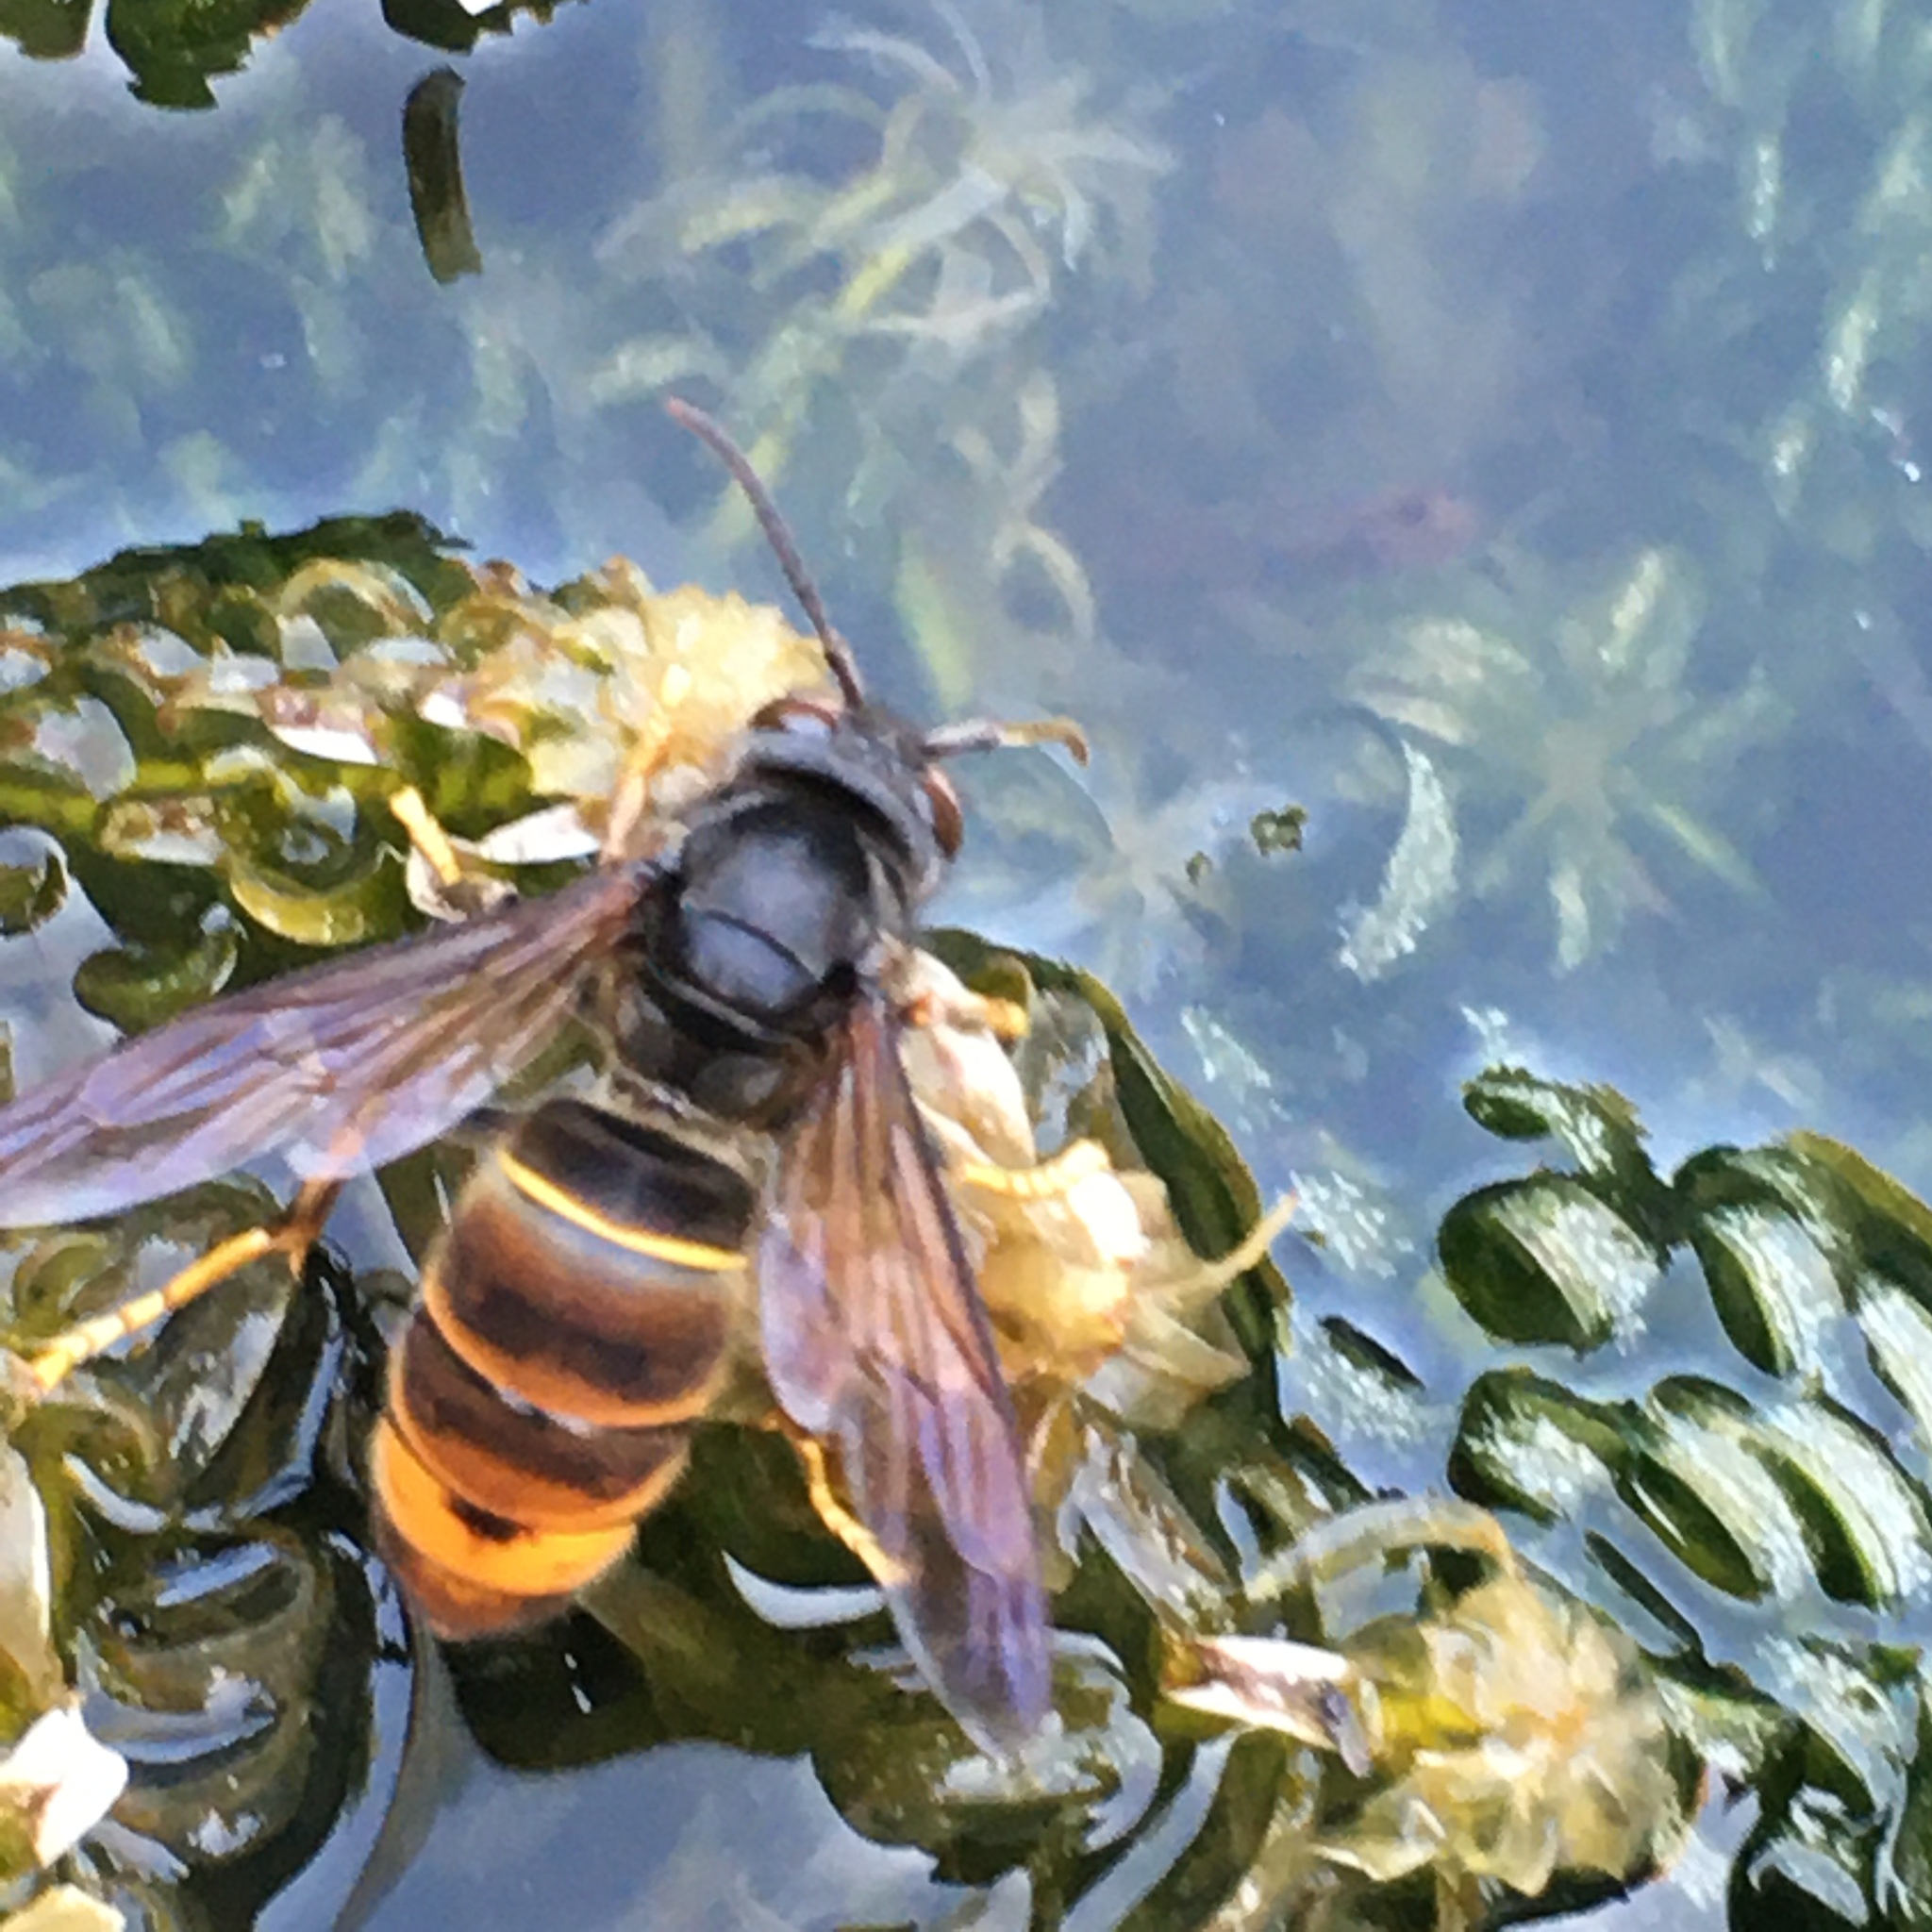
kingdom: Animalia
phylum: Arthropoda
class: Insecta
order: Hymenoptera
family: Vespidae
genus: Vespa
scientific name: Vespa velutina
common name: Asian hornet
